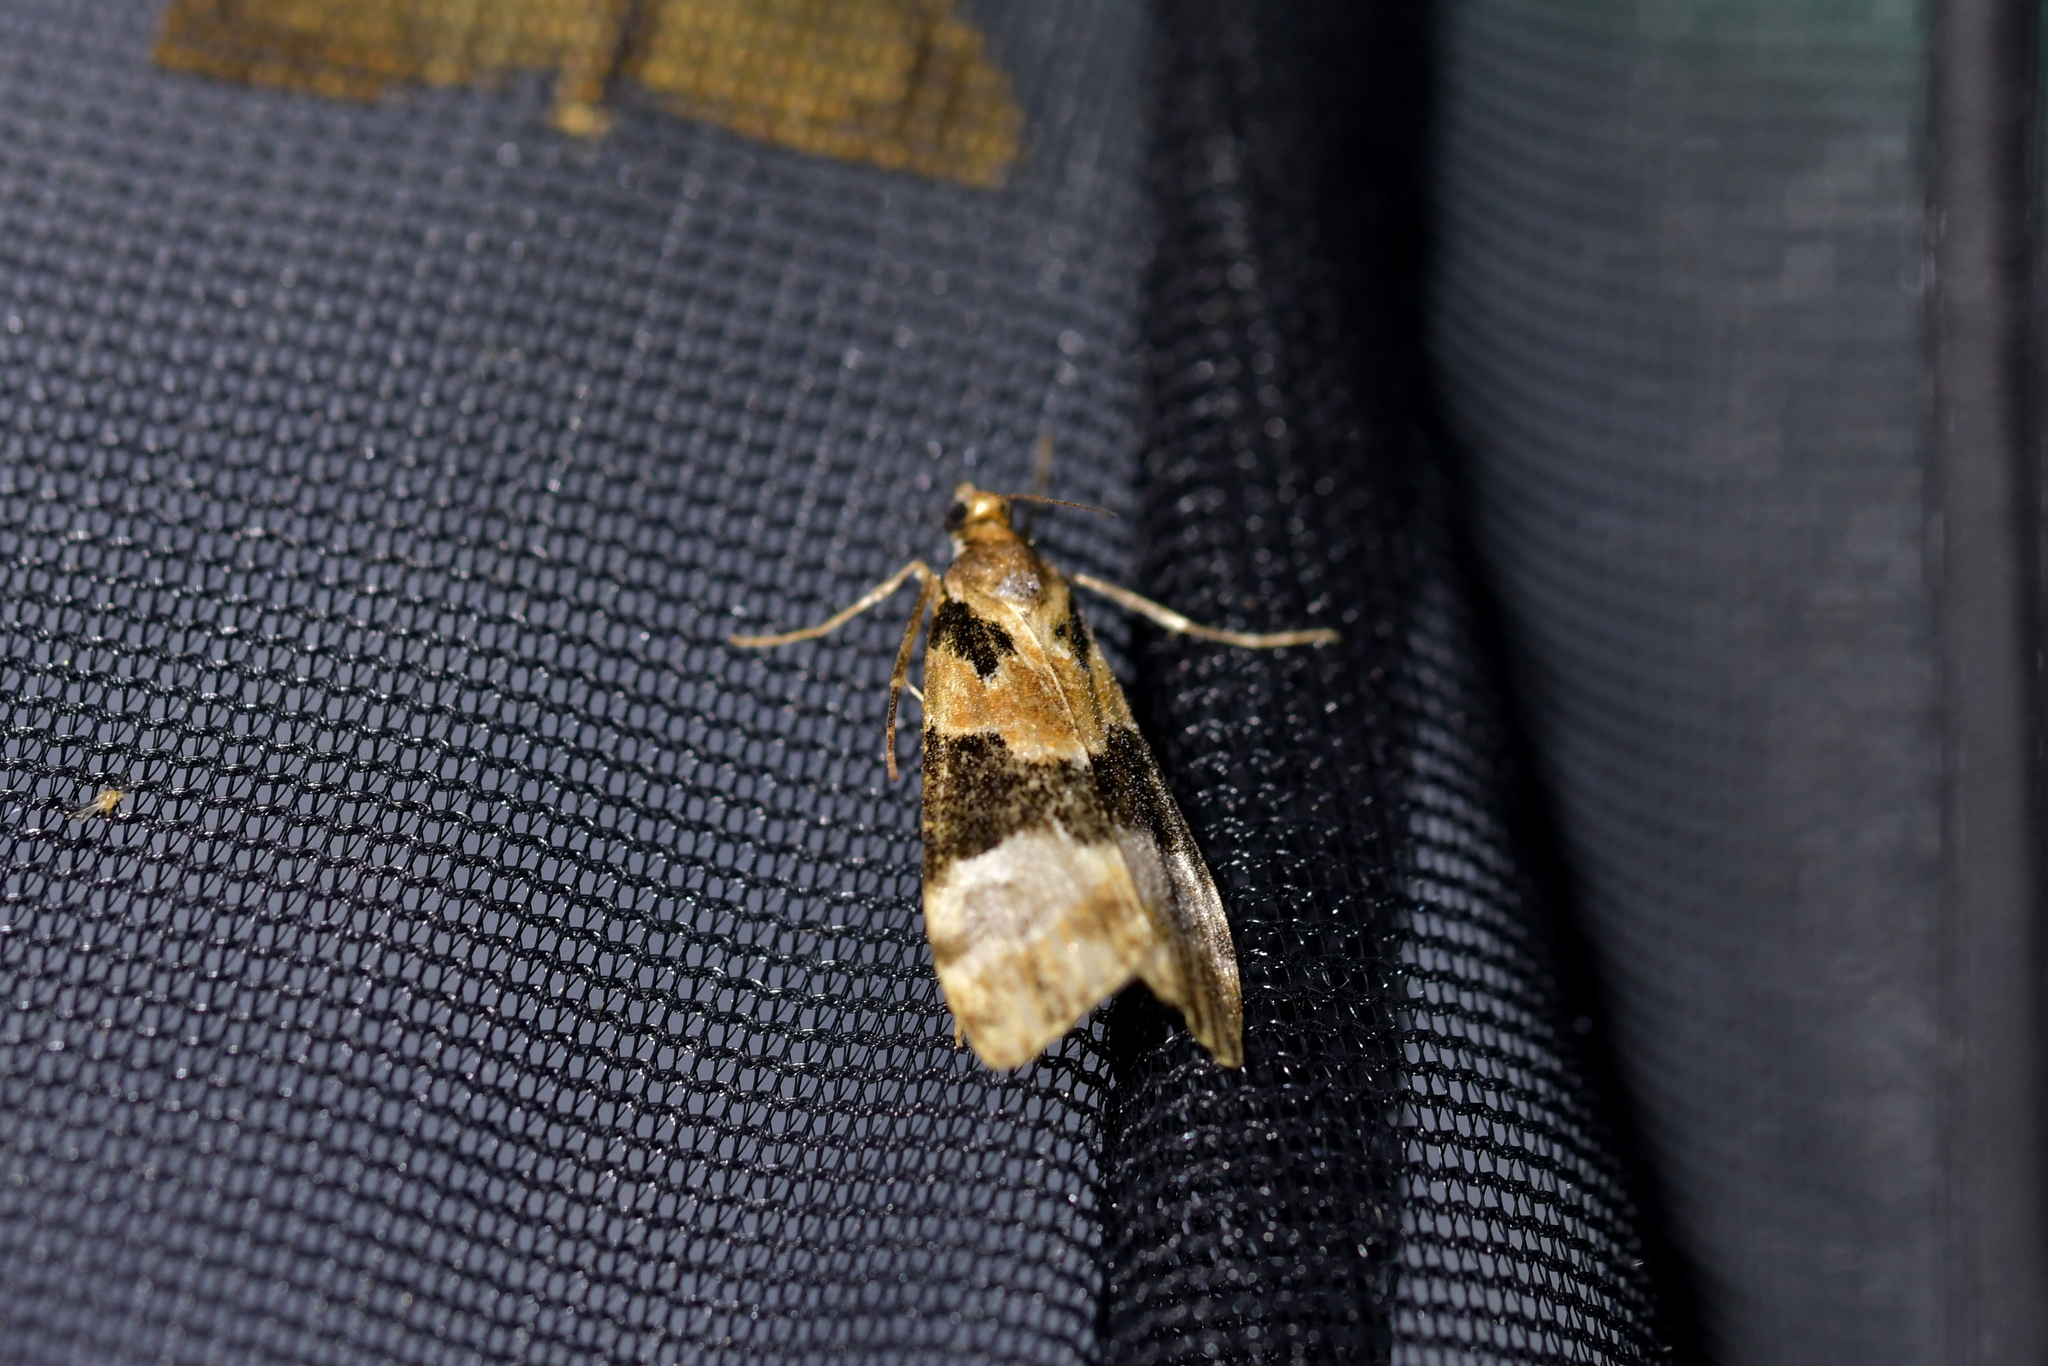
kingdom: Animalia
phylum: Arthropoda
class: Insecta
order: Lepidoptera
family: Crambidae
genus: Eudonia
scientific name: Eudonia aspidota
